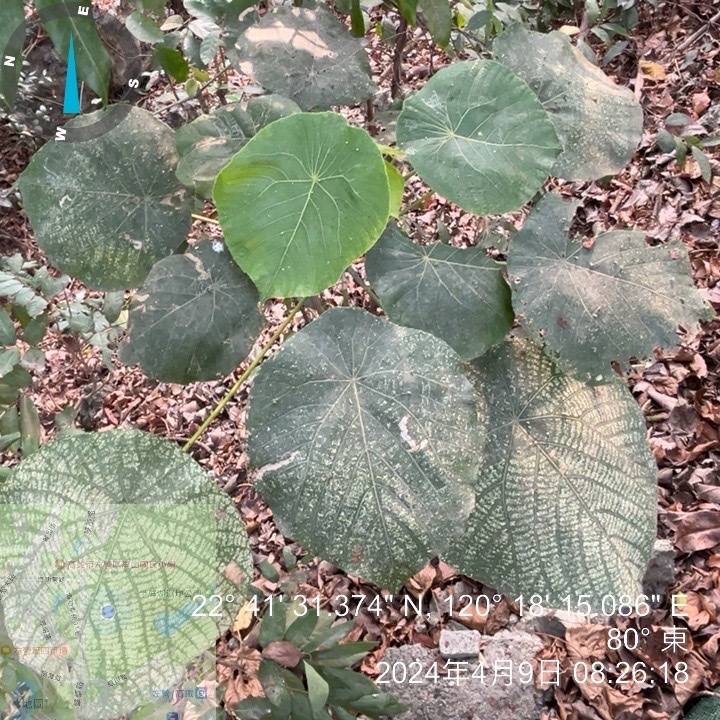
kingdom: Plantae
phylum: Tracheophyta
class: Magnoliopsida
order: Malpighiales
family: Euphorbiaceae
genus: Macaranga
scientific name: Macaranga tanarius
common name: Parasol leaf tree
